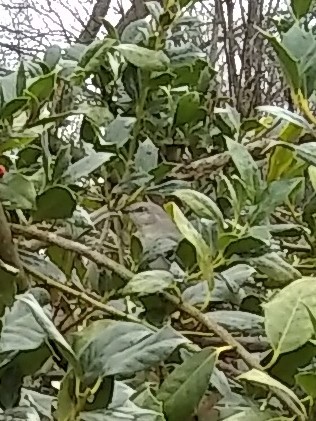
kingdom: Animalia
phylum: Chordata
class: Aves
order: Passeriformes
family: Mimidae
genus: Mimus
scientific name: Mimus polyglottos
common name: Northern mockingbird
